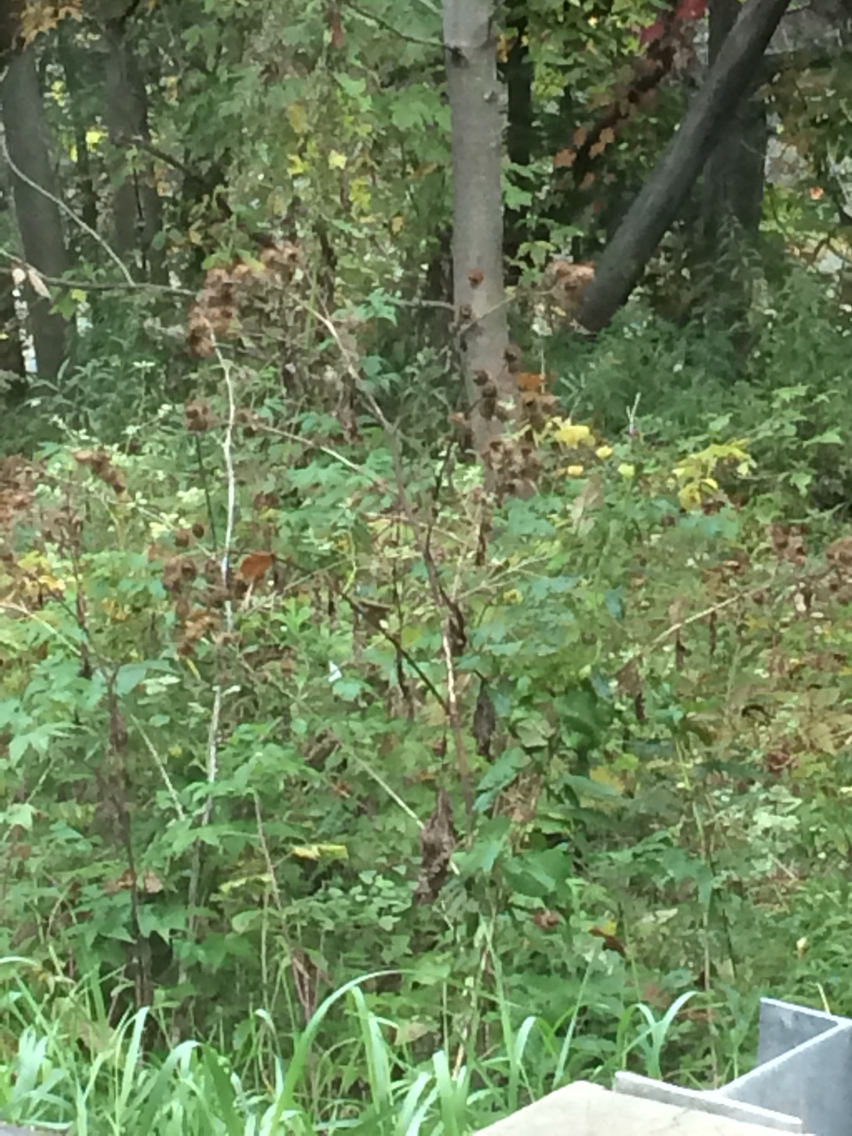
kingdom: Plantae
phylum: Tracheophyta
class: Magnoliopsida
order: Asterales
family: Asteraceae
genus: Arctium
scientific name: Arctium lappa
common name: Greater burdock
